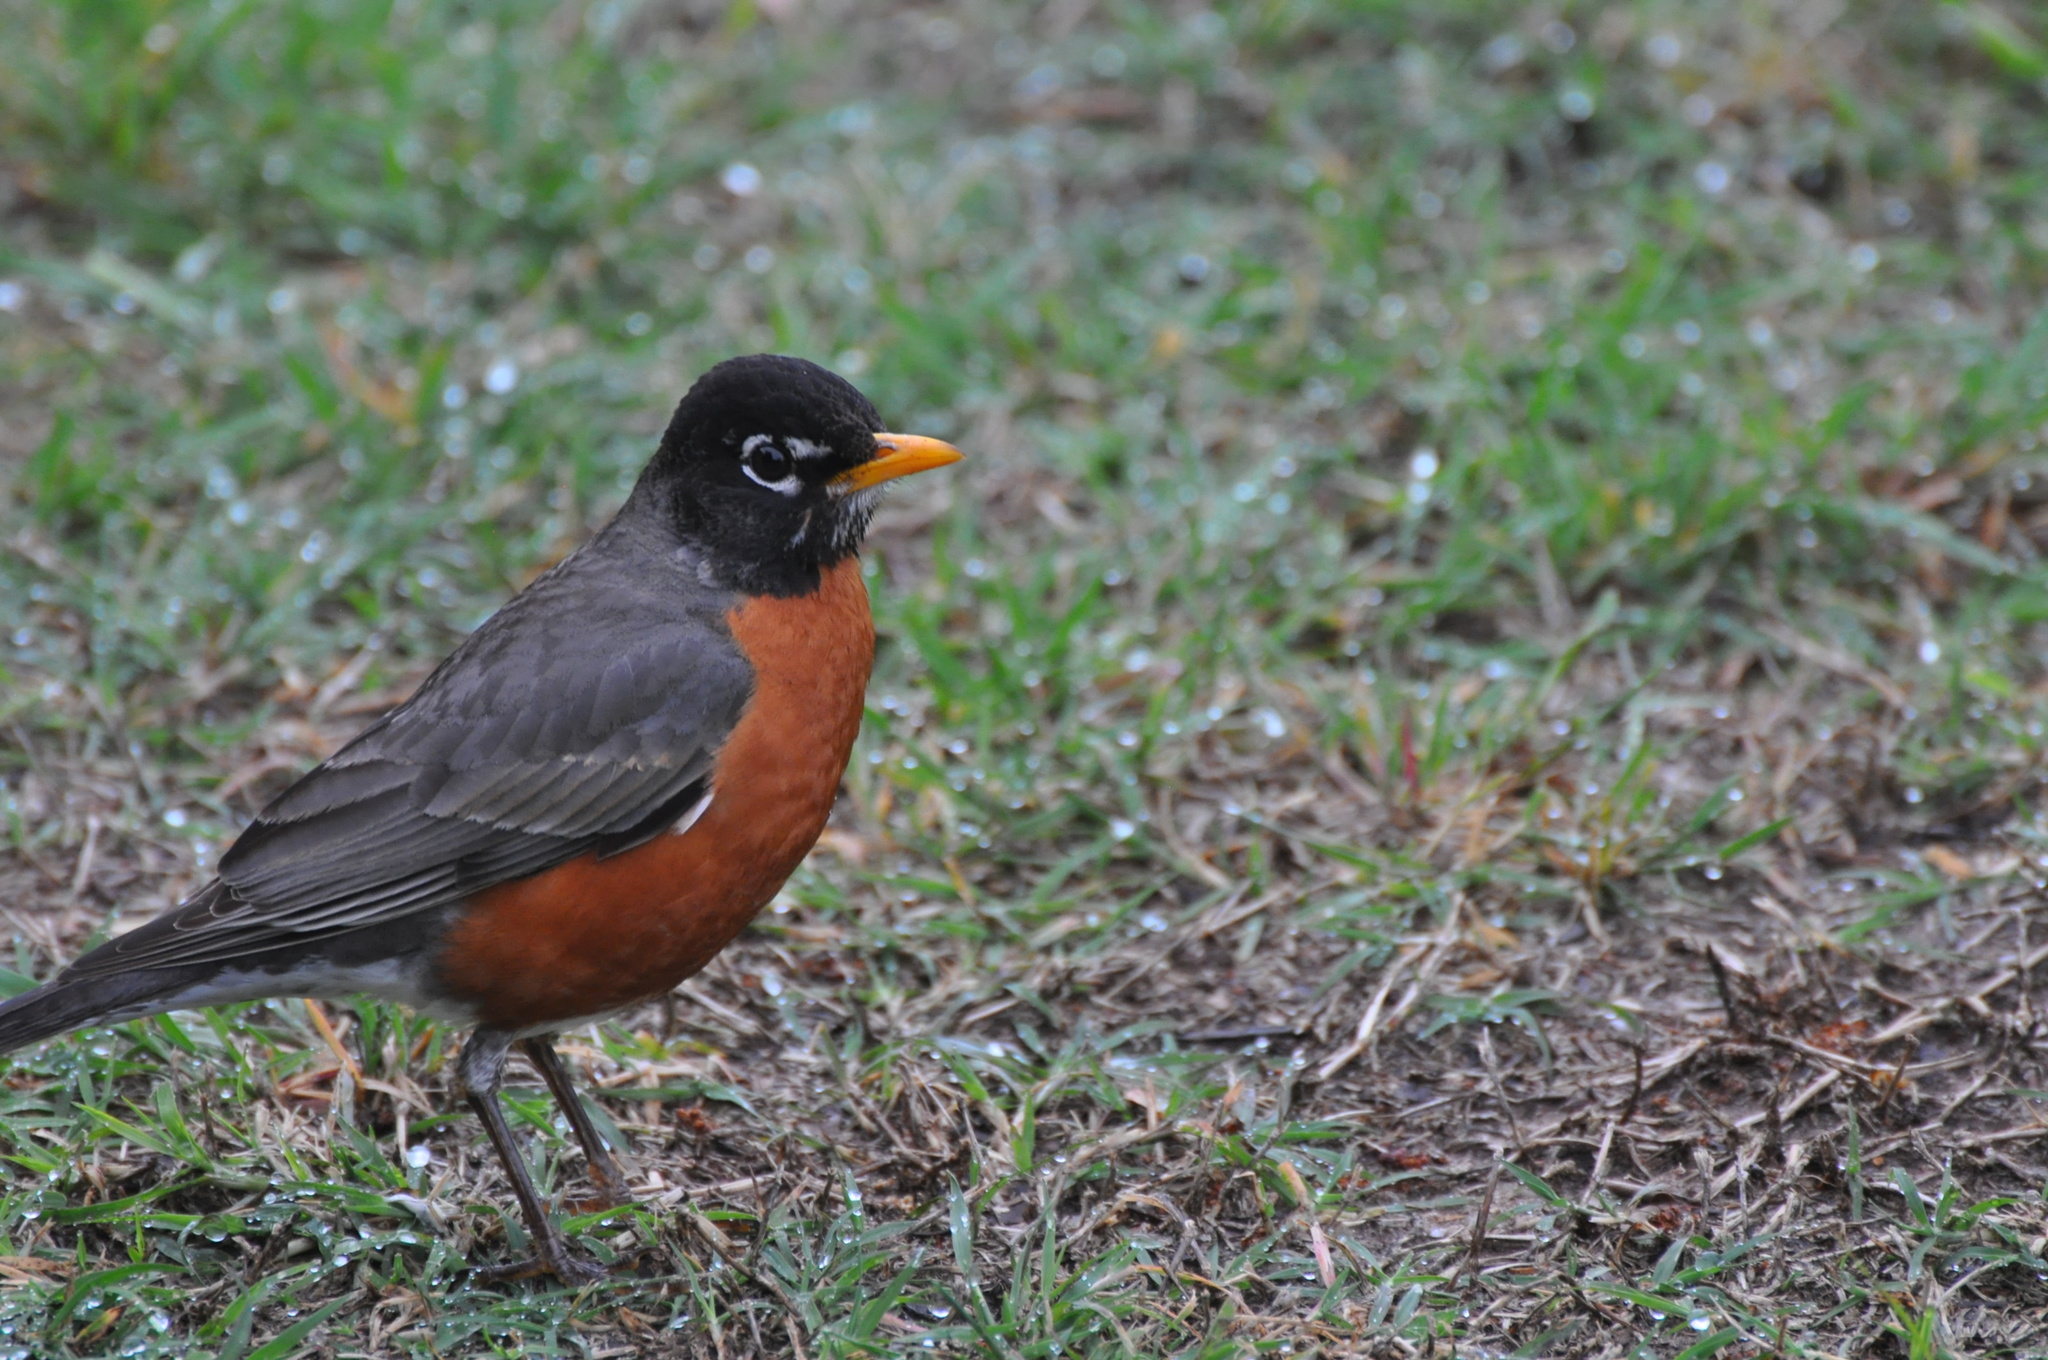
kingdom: Animalia
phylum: Chordata
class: Aves
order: Passeriformes
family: Turdidae
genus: Turdus
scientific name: Turdus migratorius
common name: American robin
